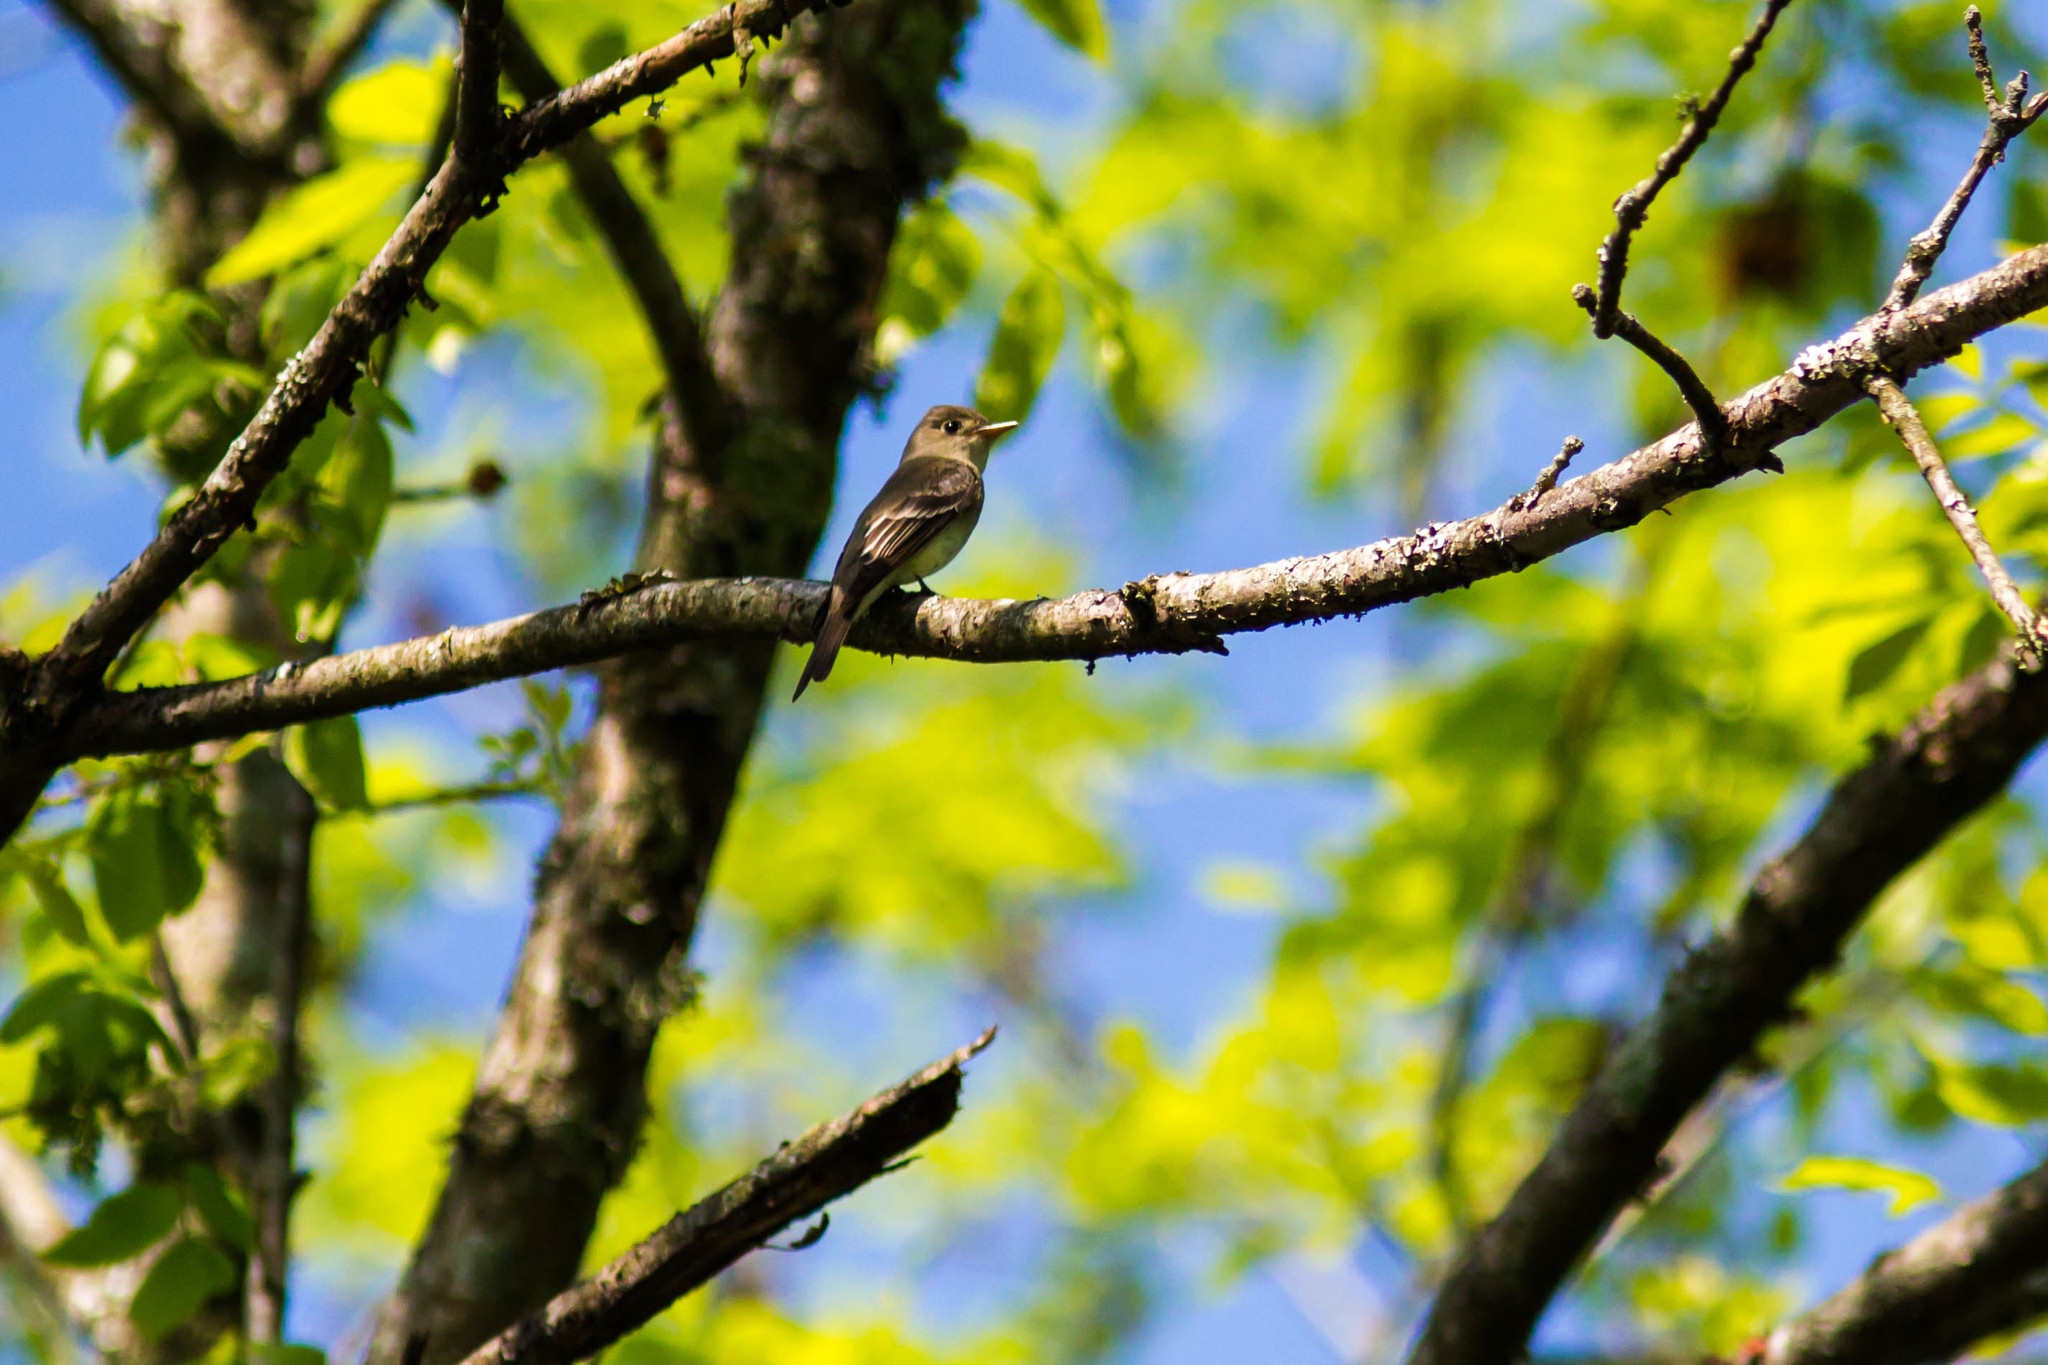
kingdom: Animalia
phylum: Chordata
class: Aves
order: Passeriformes
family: Tyrannidae
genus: Contopus
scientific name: Contopus virens
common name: Eastern wood-pewee
